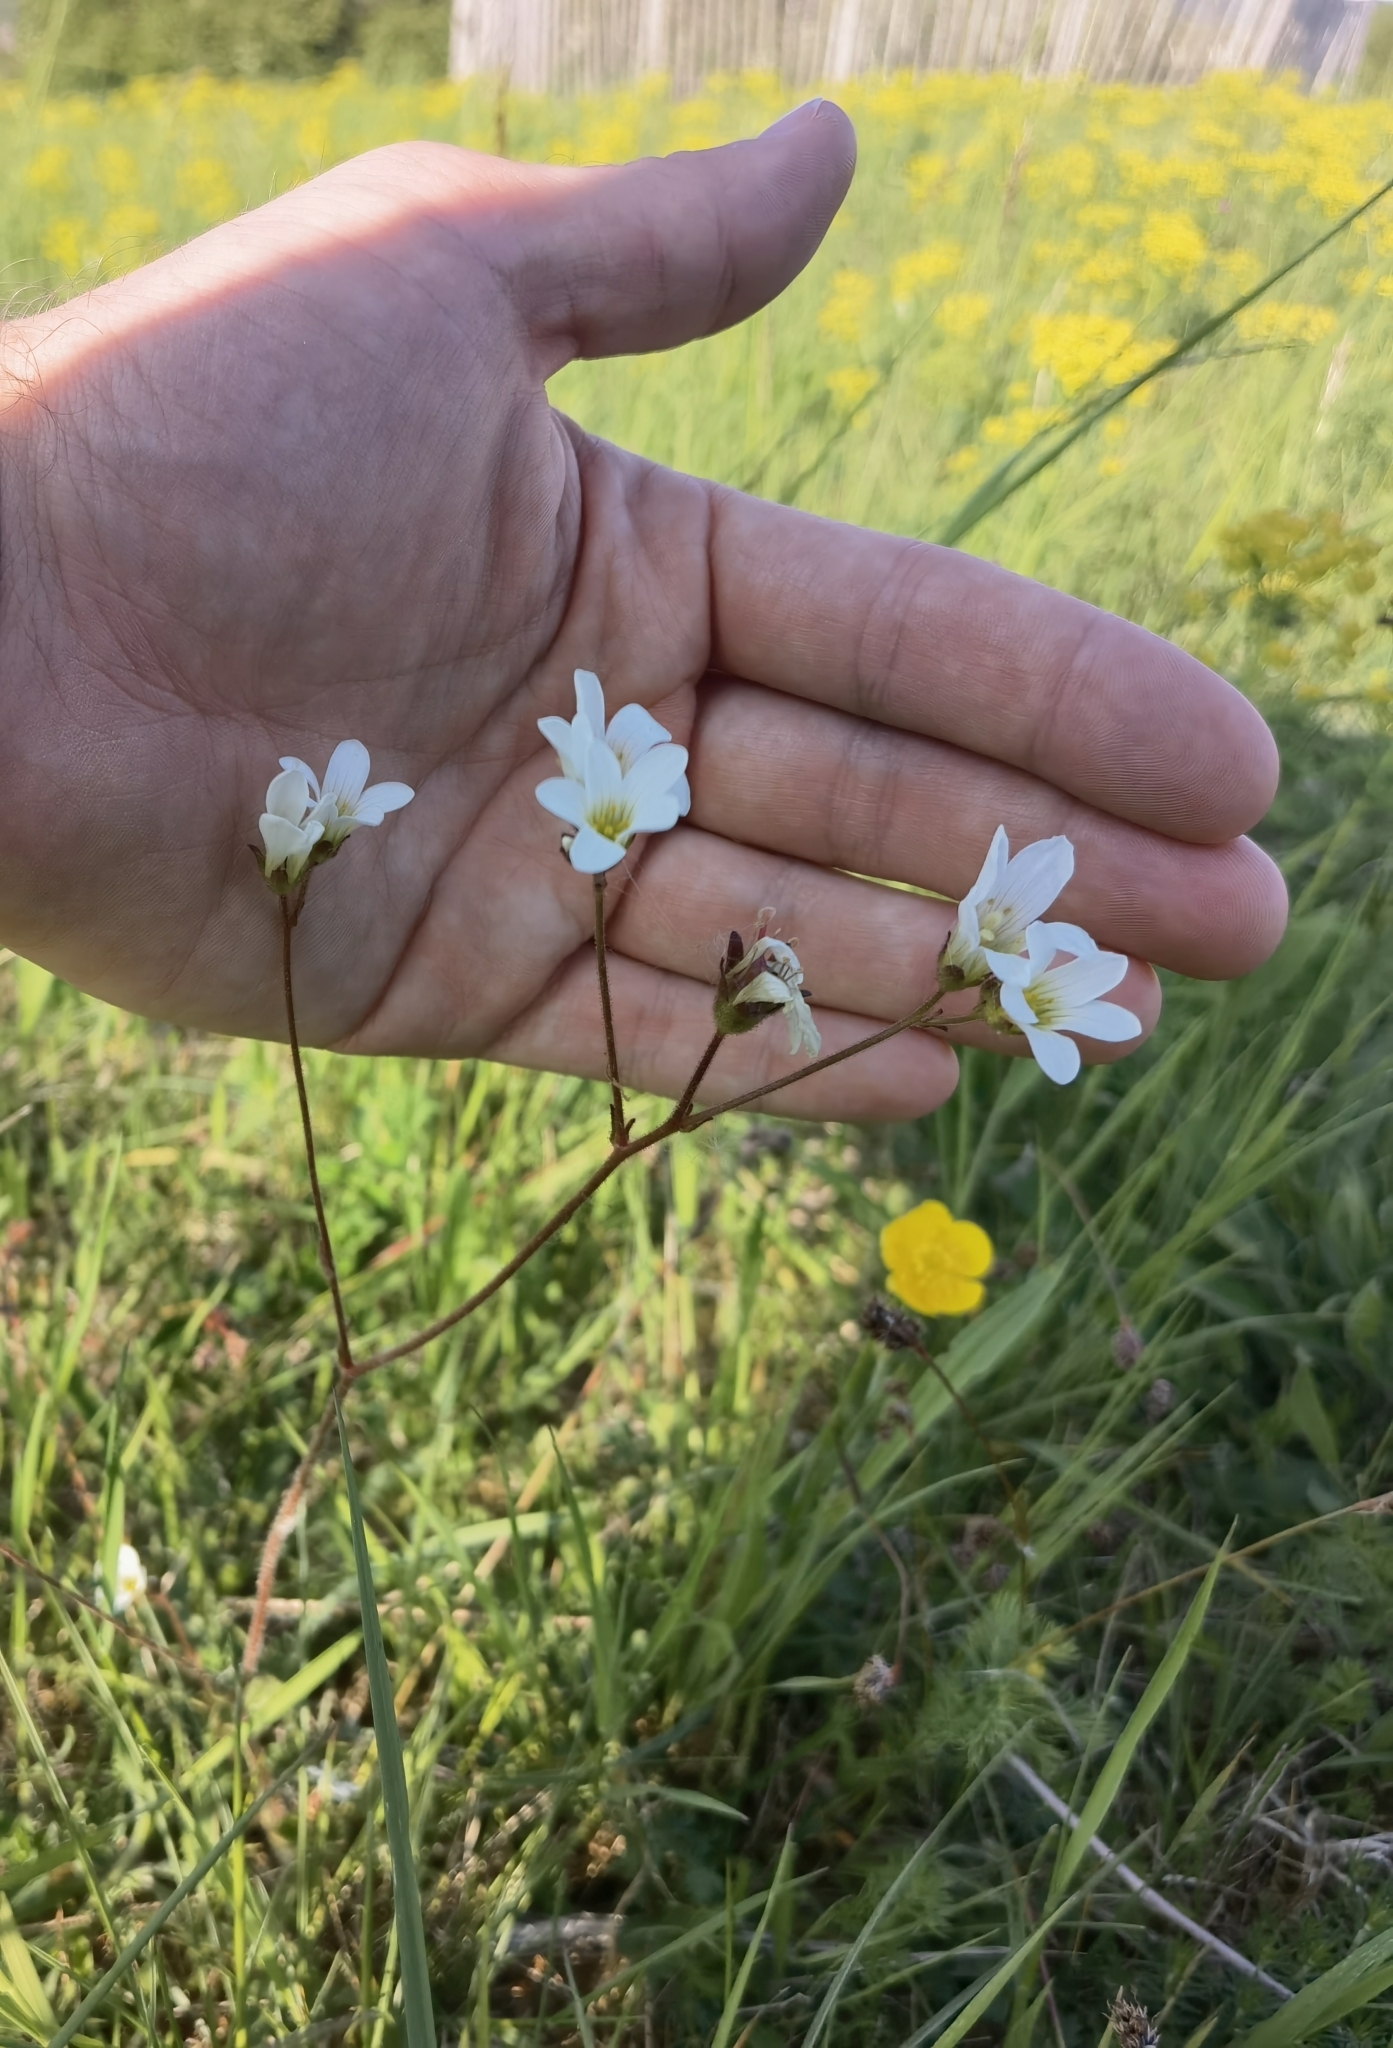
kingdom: Plantae
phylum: Tracheophyta
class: Magnoliopsida
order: Saxifragales
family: Saxifragaceae
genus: Saxifraga
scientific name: Saxifraga granulata
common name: Meadow saxifrage
